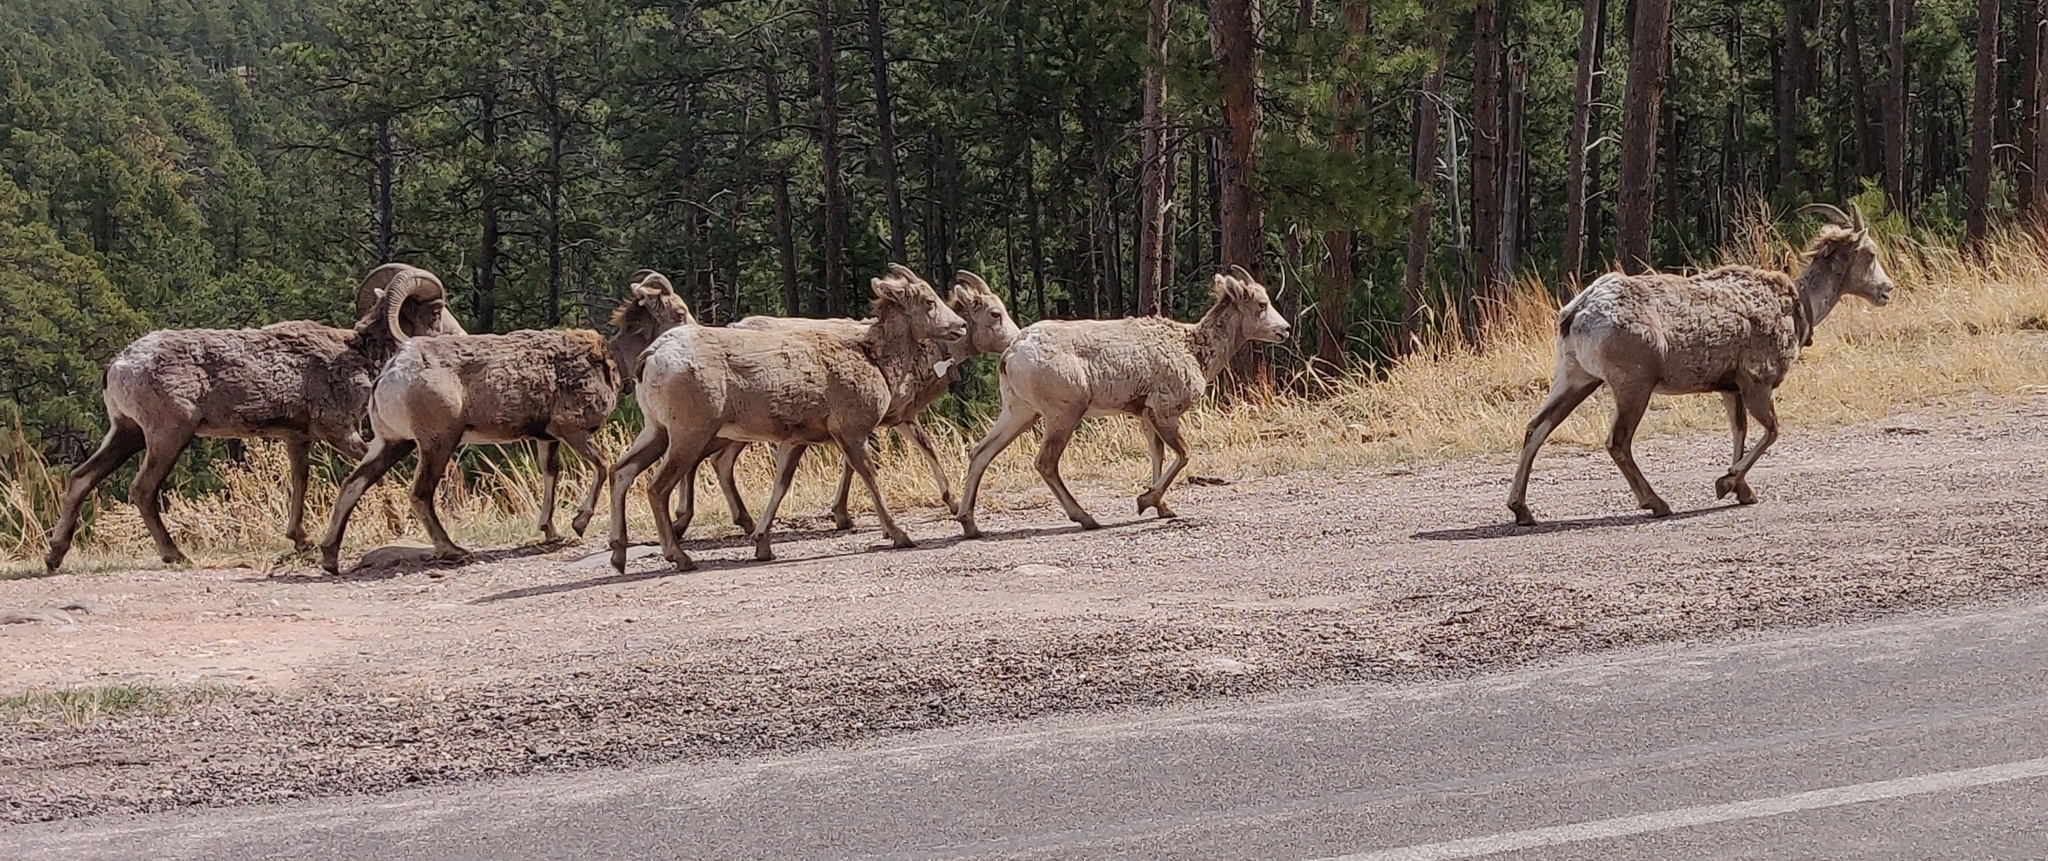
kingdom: Animalia
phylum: Chordata
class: Mammalia
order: Artiodactyla
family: Bovidae
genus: Ovis
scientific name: Ovis canadensis
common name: Bighorn sheep
